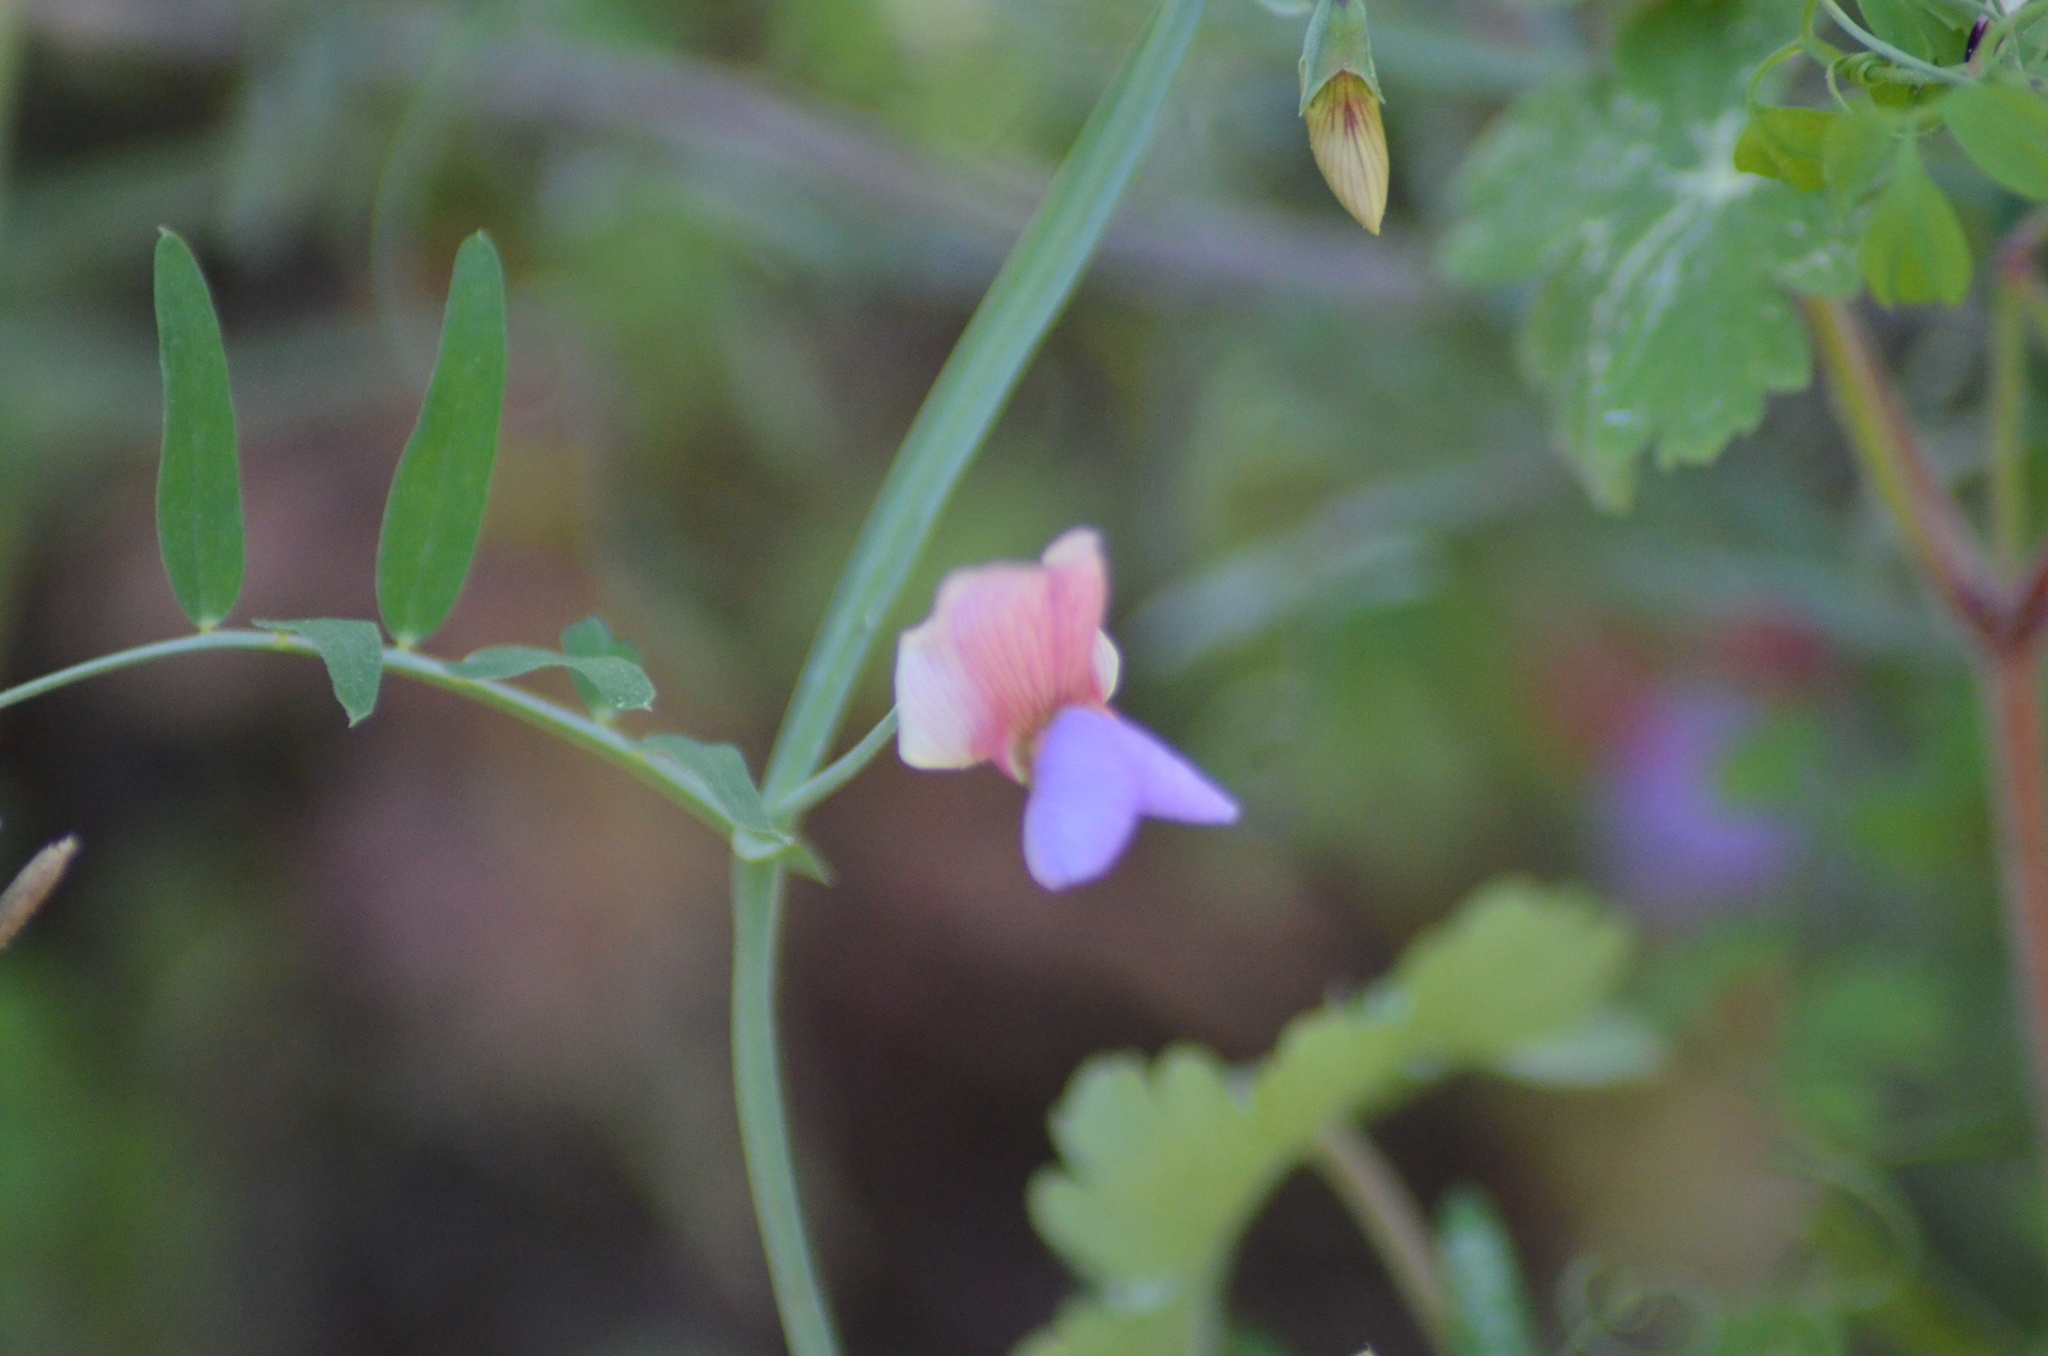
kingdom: Plantae
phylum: Tracheophyta
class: Magnoliopsida
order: Fabales
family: Fabaceae
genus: Lathyrus
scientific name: Lathyrus clymenum
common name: Spanish vetchling
